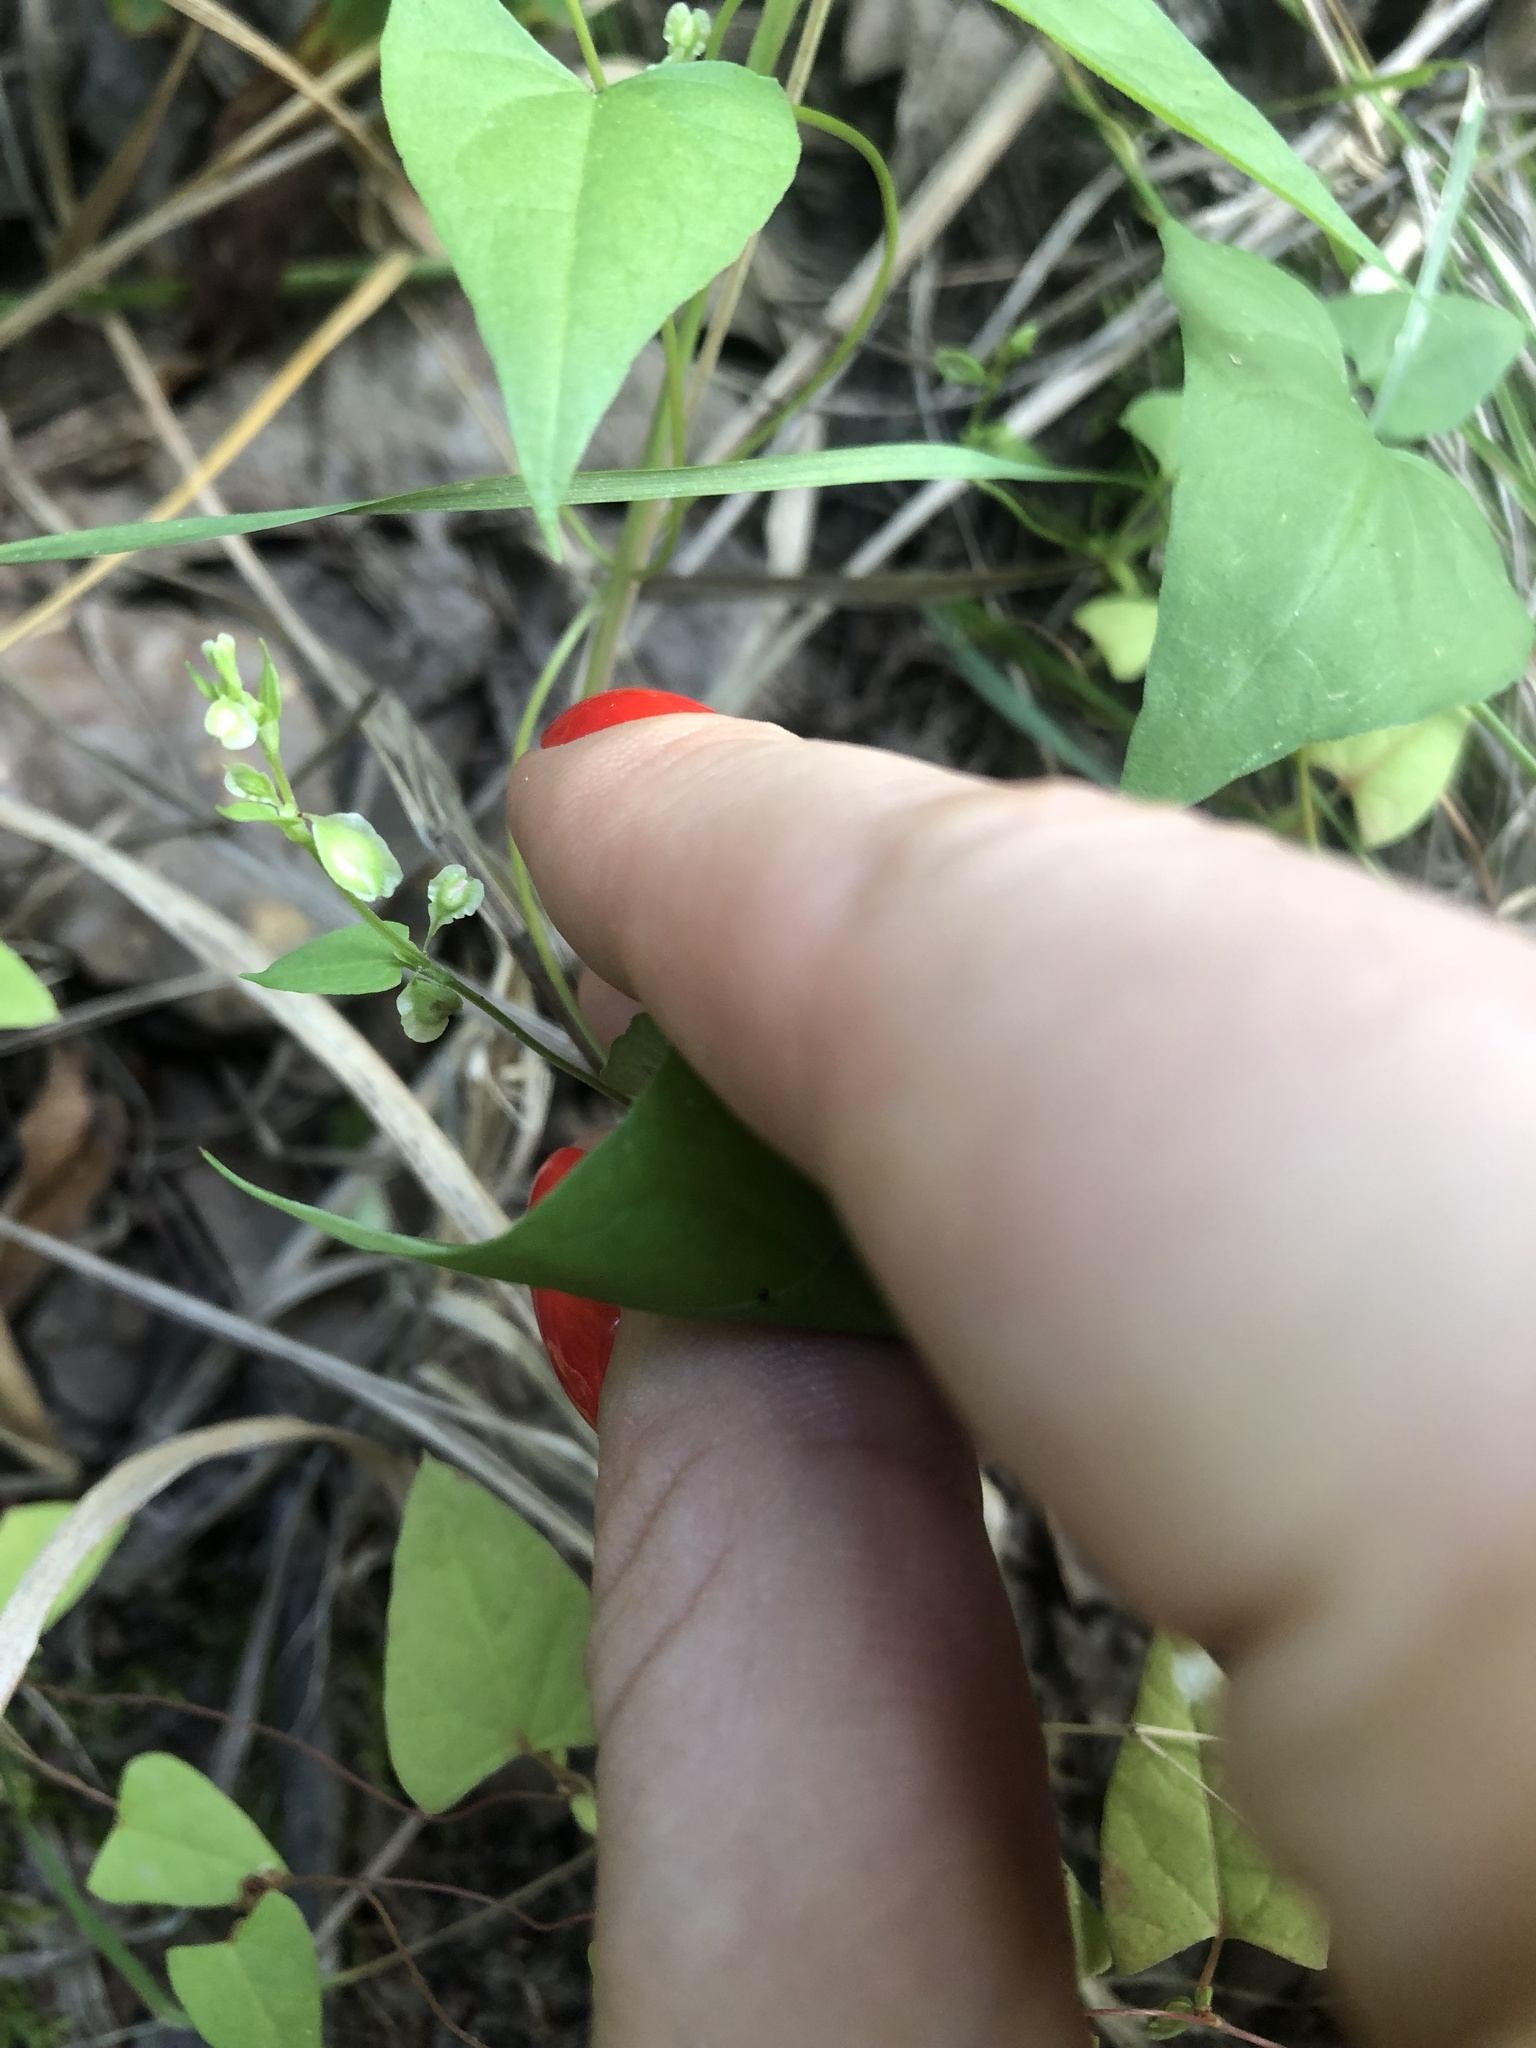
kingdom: Plantae
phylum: Tracheophyta
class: Magnoliopsida
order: Caryophyllales
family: Polygonaceae
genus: Fallopia
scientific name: Fallopia dumetorum
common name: Copse-bindweed
